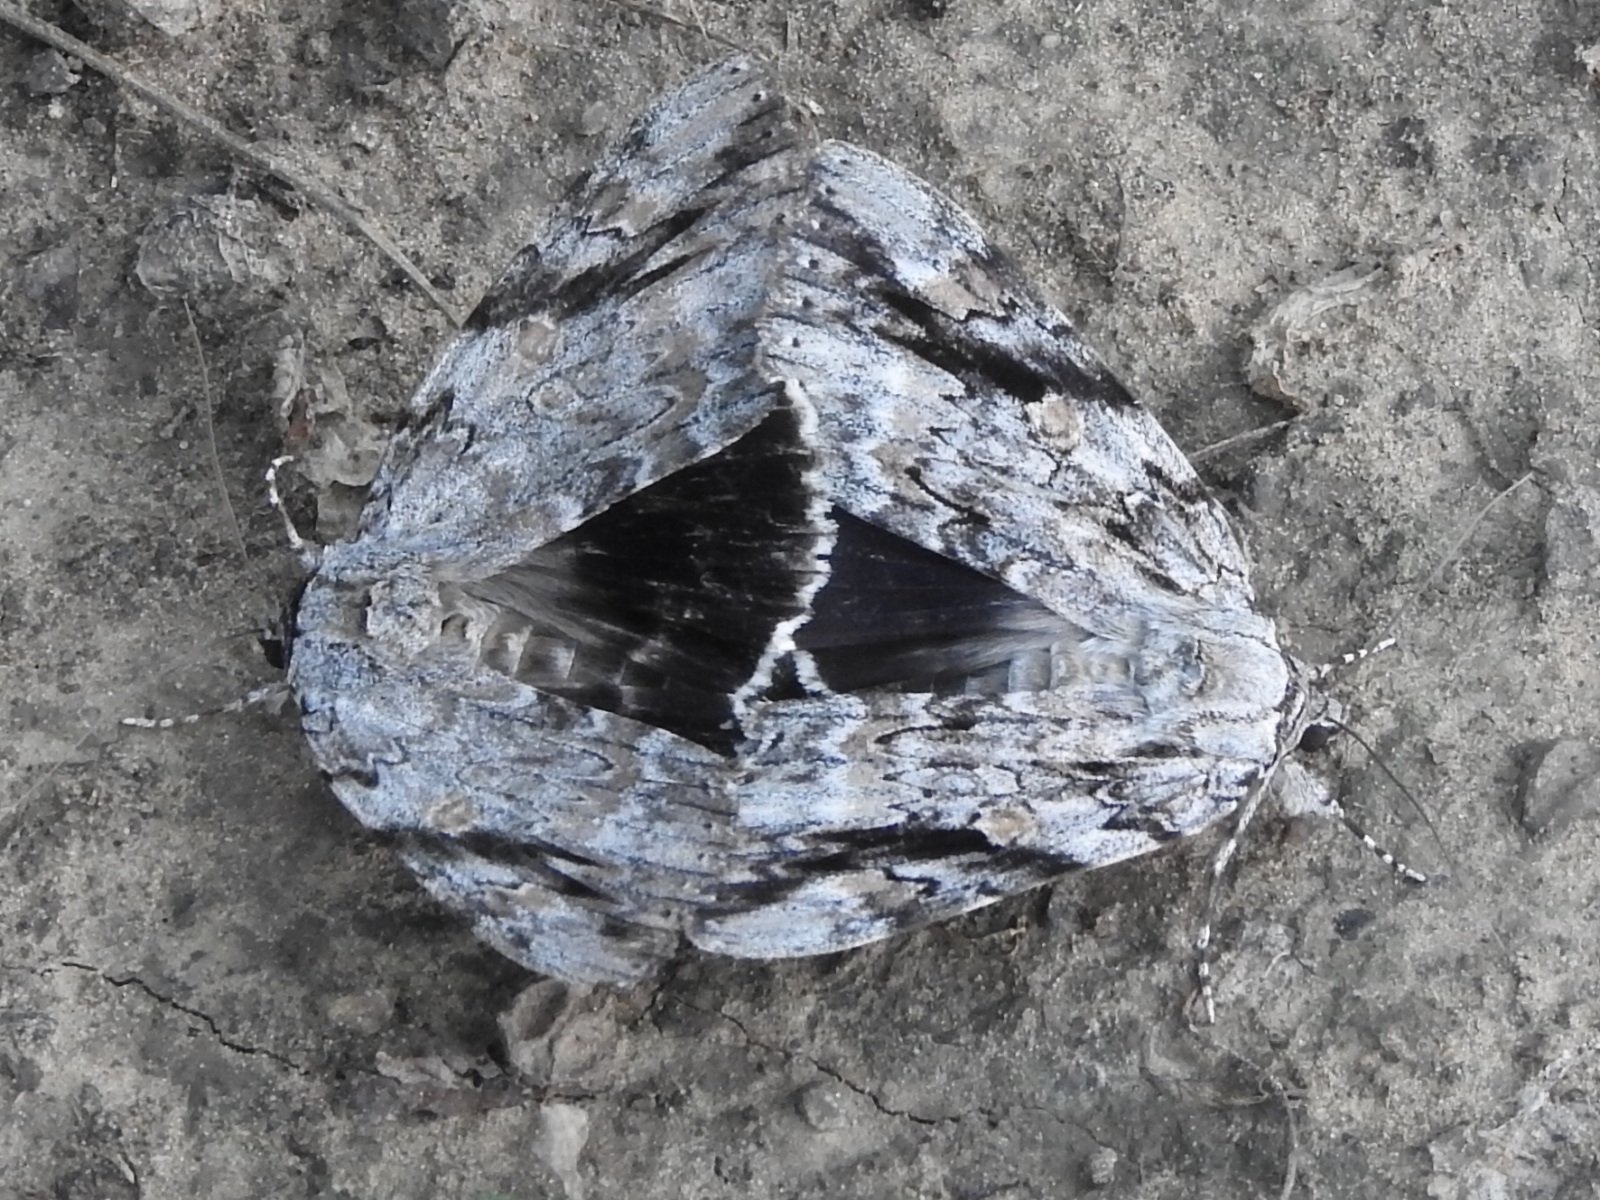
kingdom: Animalia
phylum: Arthropoda
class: Insecta
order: Lepidoptera
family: Erebidae
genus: Catocala
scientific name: Catocala maestosa
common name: Sad underwing
